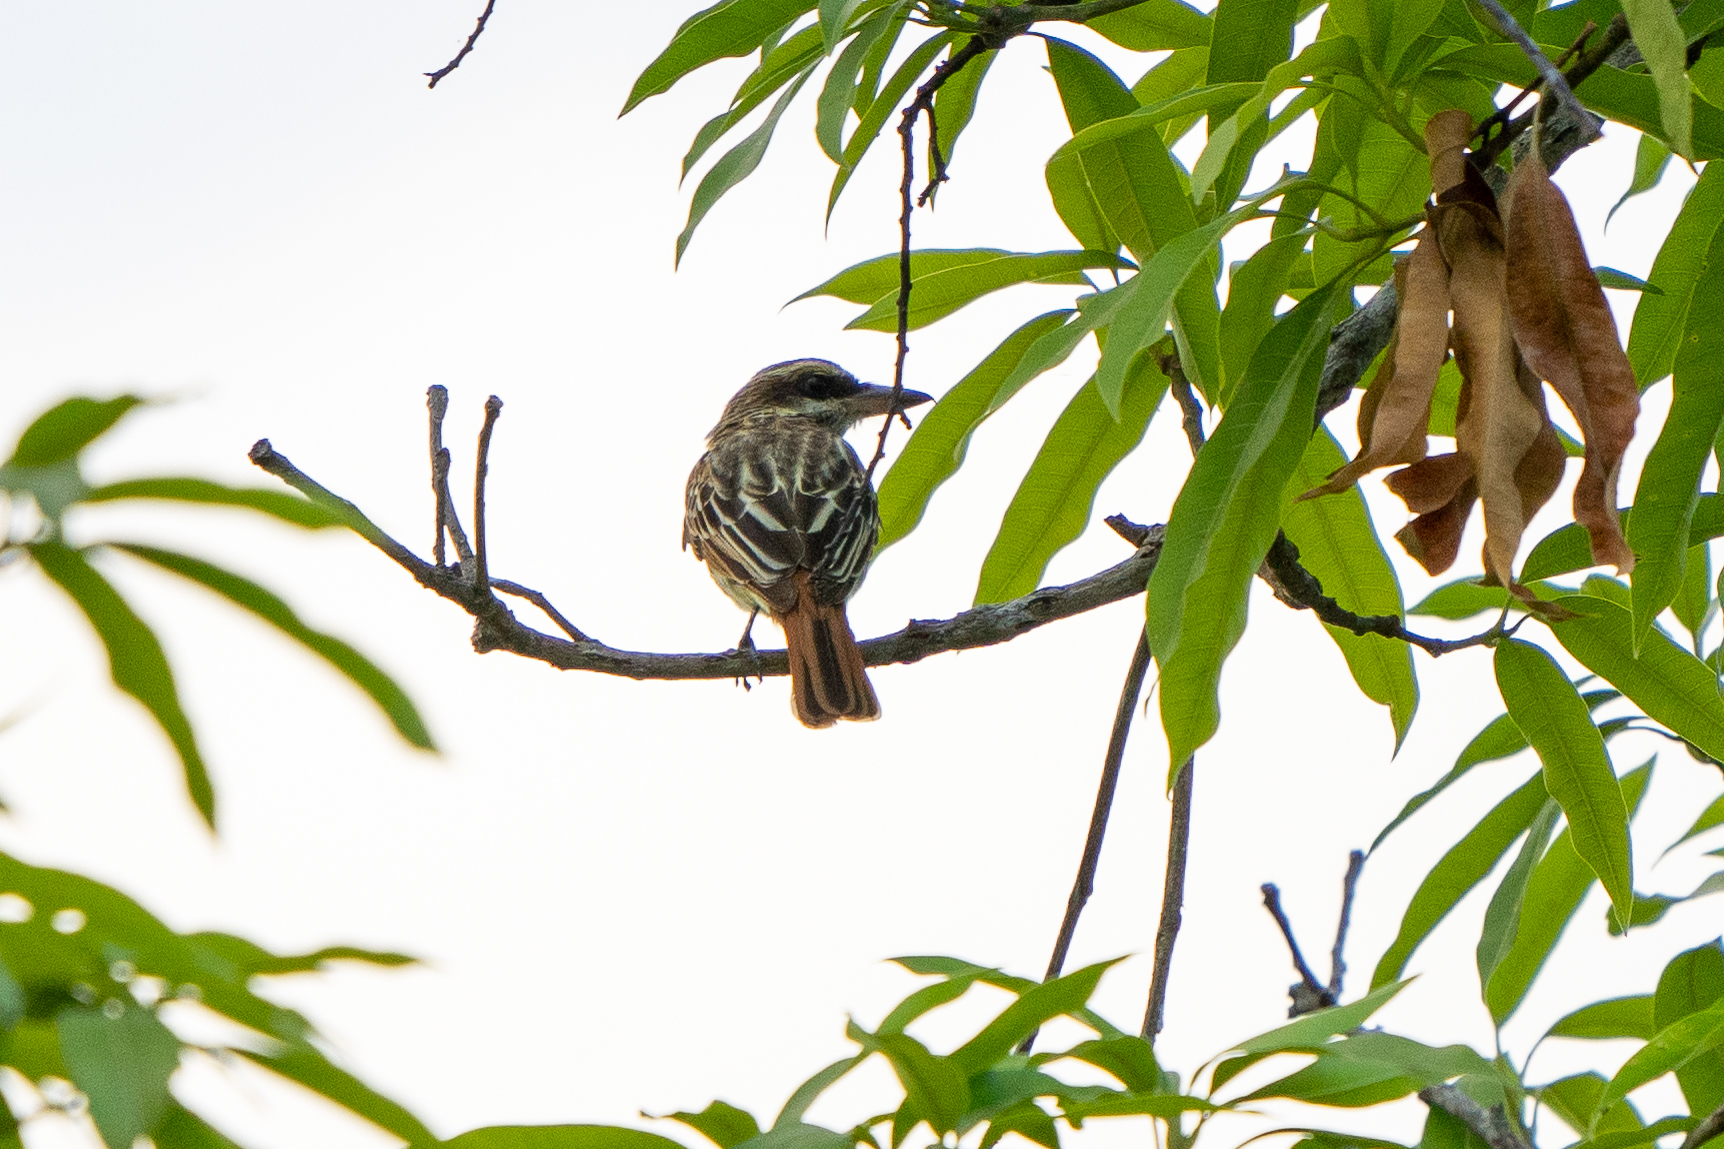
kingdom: Animalia
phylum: Chordata
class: Aves
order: Passeriformes
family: Tyrannidae
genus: Myiodynastes
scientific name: Myiodynastes maculatus
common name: Streaked flycatcher
